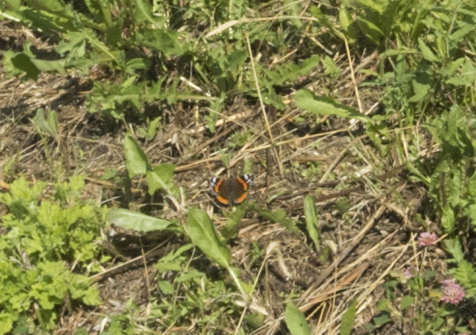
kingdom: Animalia
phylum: Arthropoda
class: Insecta
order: Lepidoptera
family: Nymphalidae
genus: Vanessa
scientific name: Vanessa atalanta
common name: Red admiral
